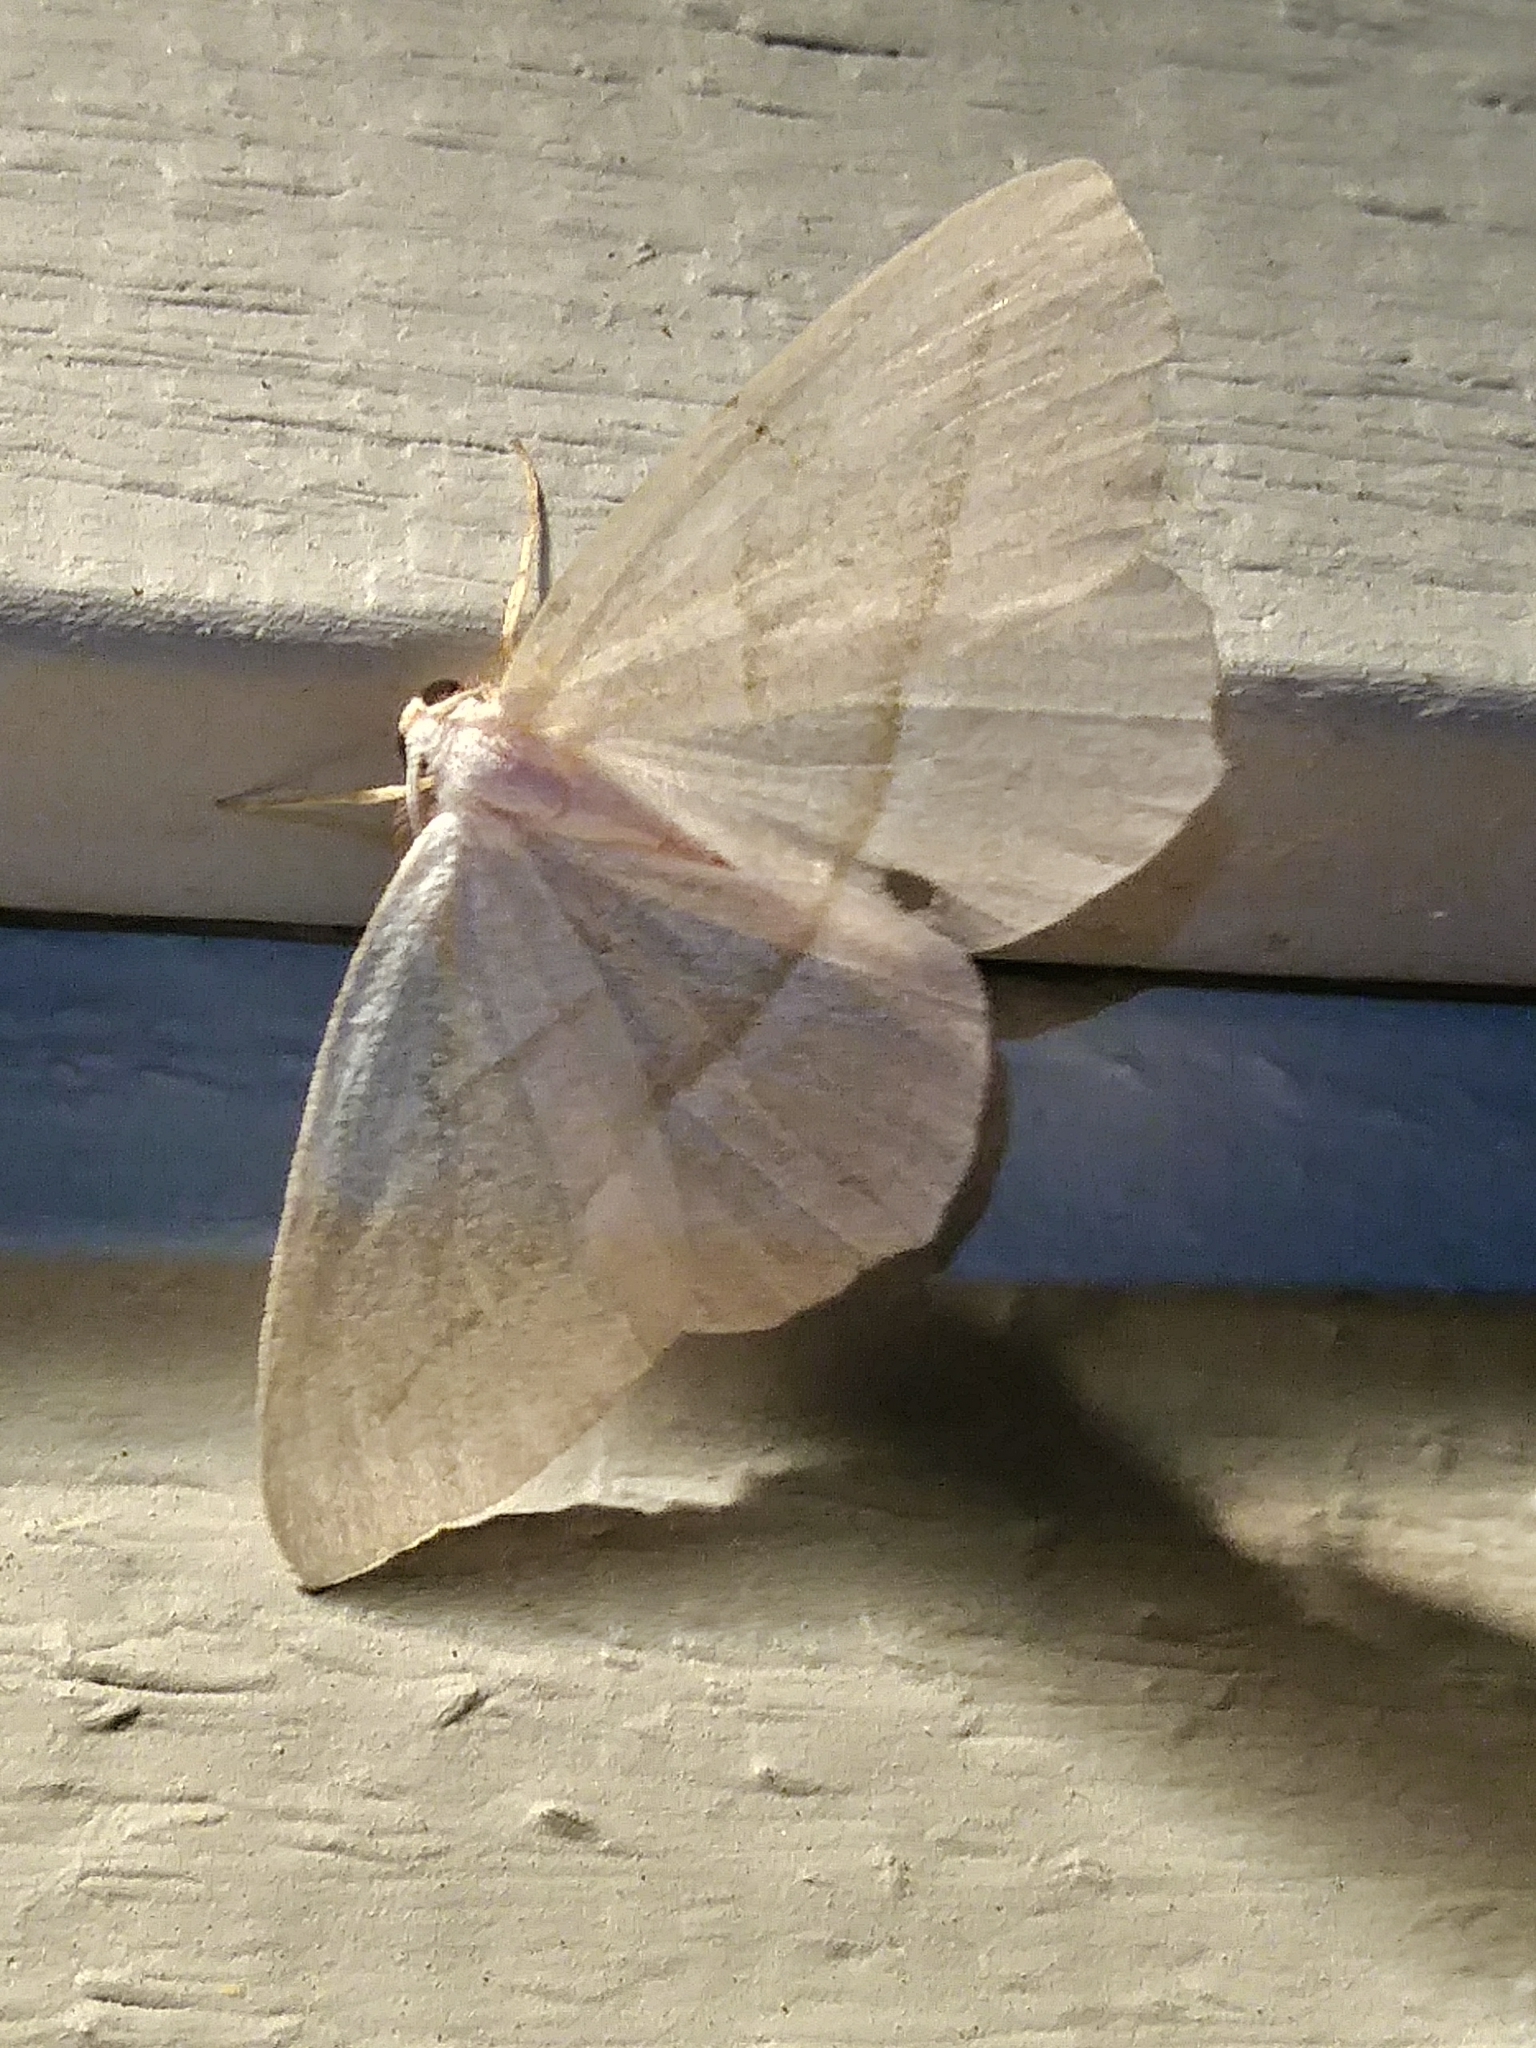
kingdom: Animalia
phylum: Arthropoda
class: Insecta
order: Lepidoptera
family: Geometridae
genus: Campaea
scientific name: Campaea perlata
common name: Fringed looper
